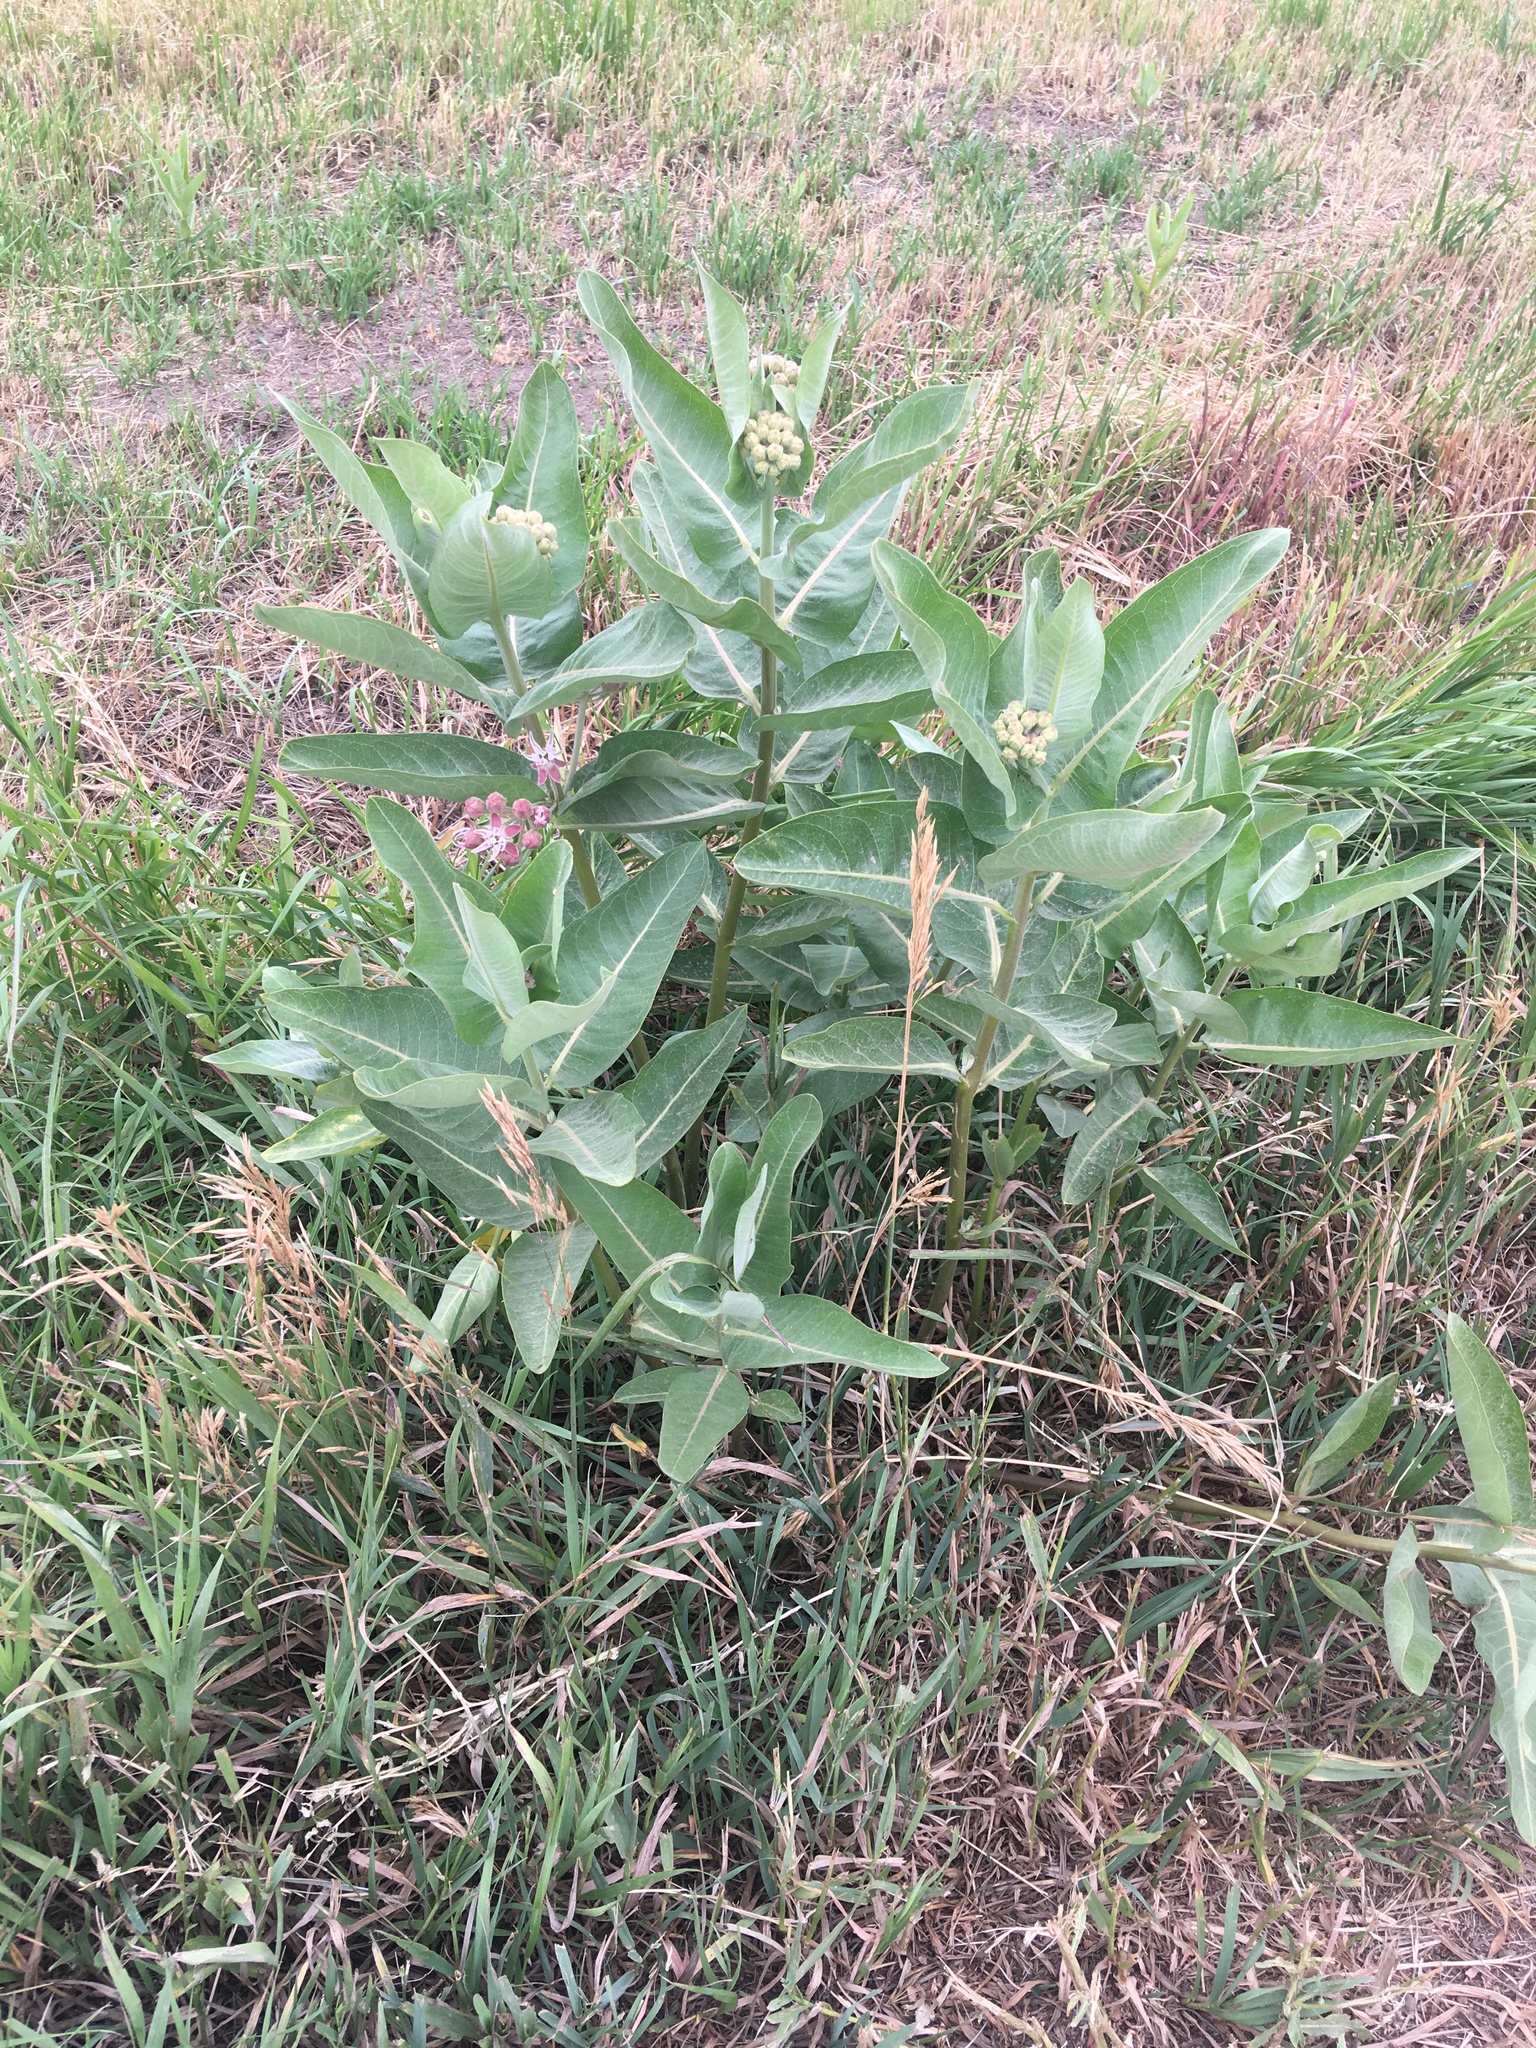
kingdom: Plantae
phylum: Tracheophyta
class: Magnoliopsida
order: Gentianales
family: Apocynaceae
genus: Asclepias
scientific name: Asclepias speciosa
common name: Showy milkweed
